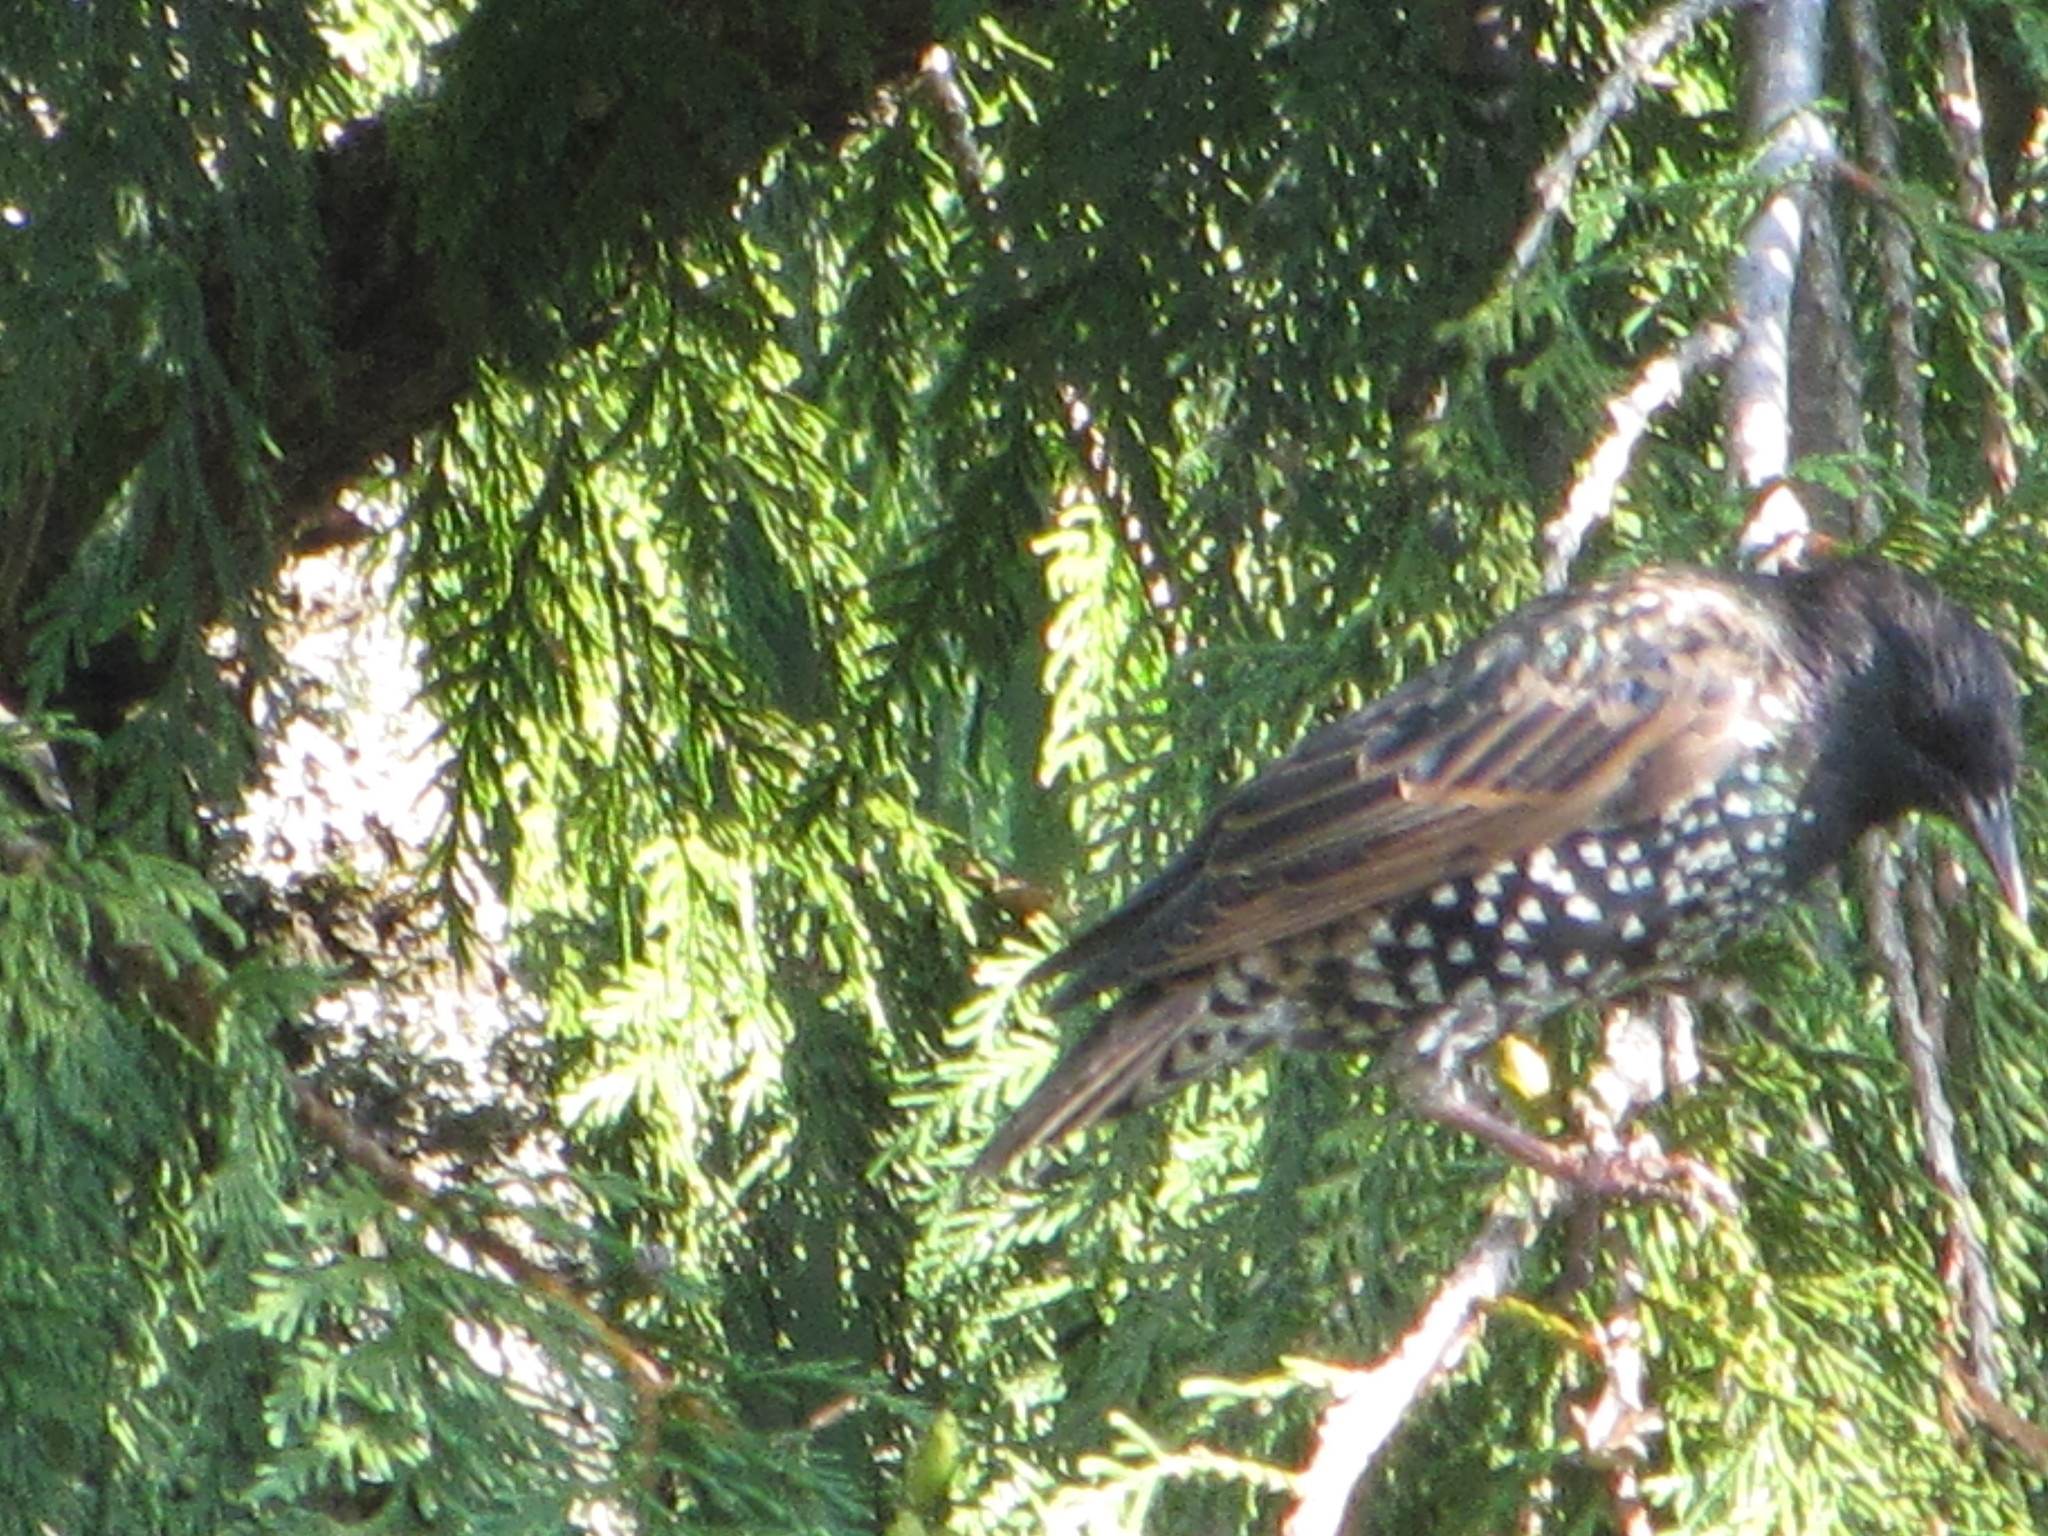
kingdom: Animalia
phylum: Chordata
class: Aves
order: Passeriformes
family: Sturnidae
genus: Sturnus
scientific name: Sturnus vulgaris
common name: Common starling
